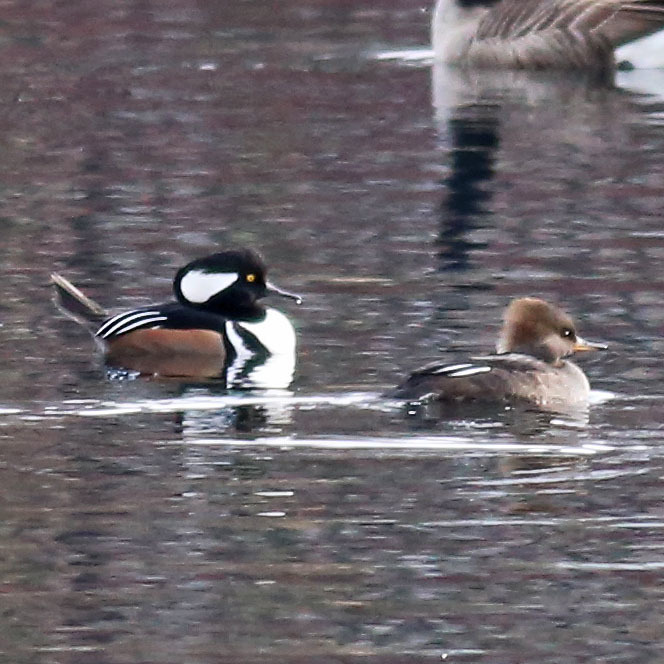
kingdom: Animalia
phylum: Chordata
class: Aves
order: Anseriformes
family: Anatidae
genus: Lophodytes
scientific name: Lophodytes cucullatus
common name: Hooded merganser
